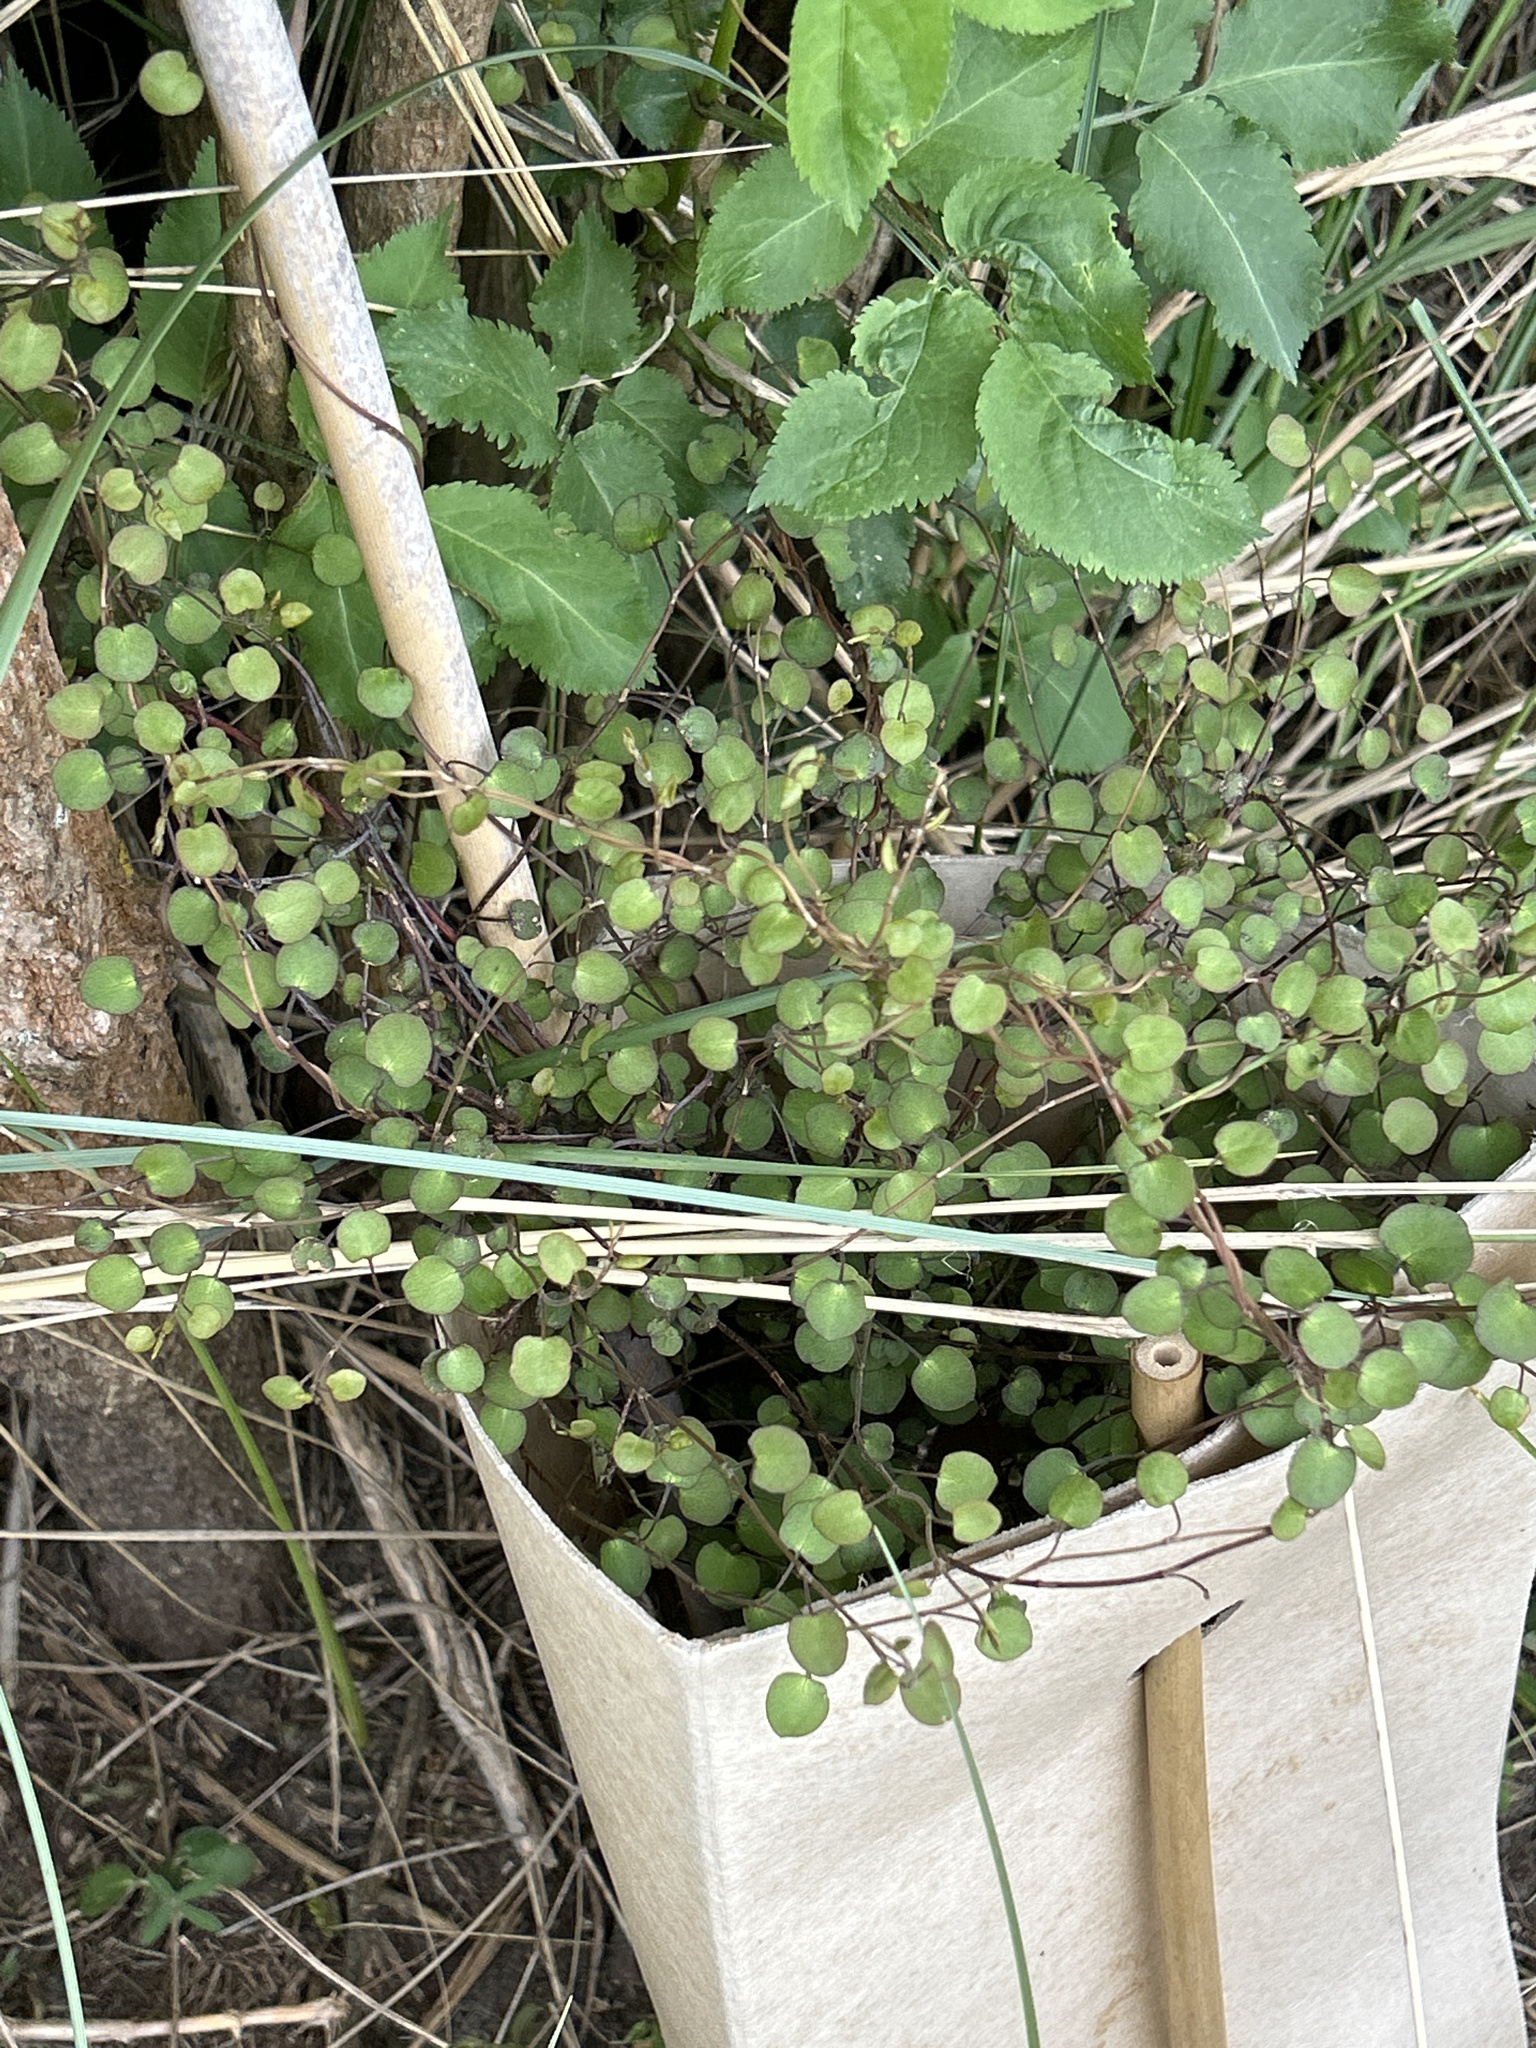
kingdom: Plantae
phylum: Tracheophyta
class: Magnoliopsida
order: Caryophyllales
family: Polygonaceae
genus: Muehlenbeckia
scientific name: Muehlenbeckia complexa
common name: Wireplant
